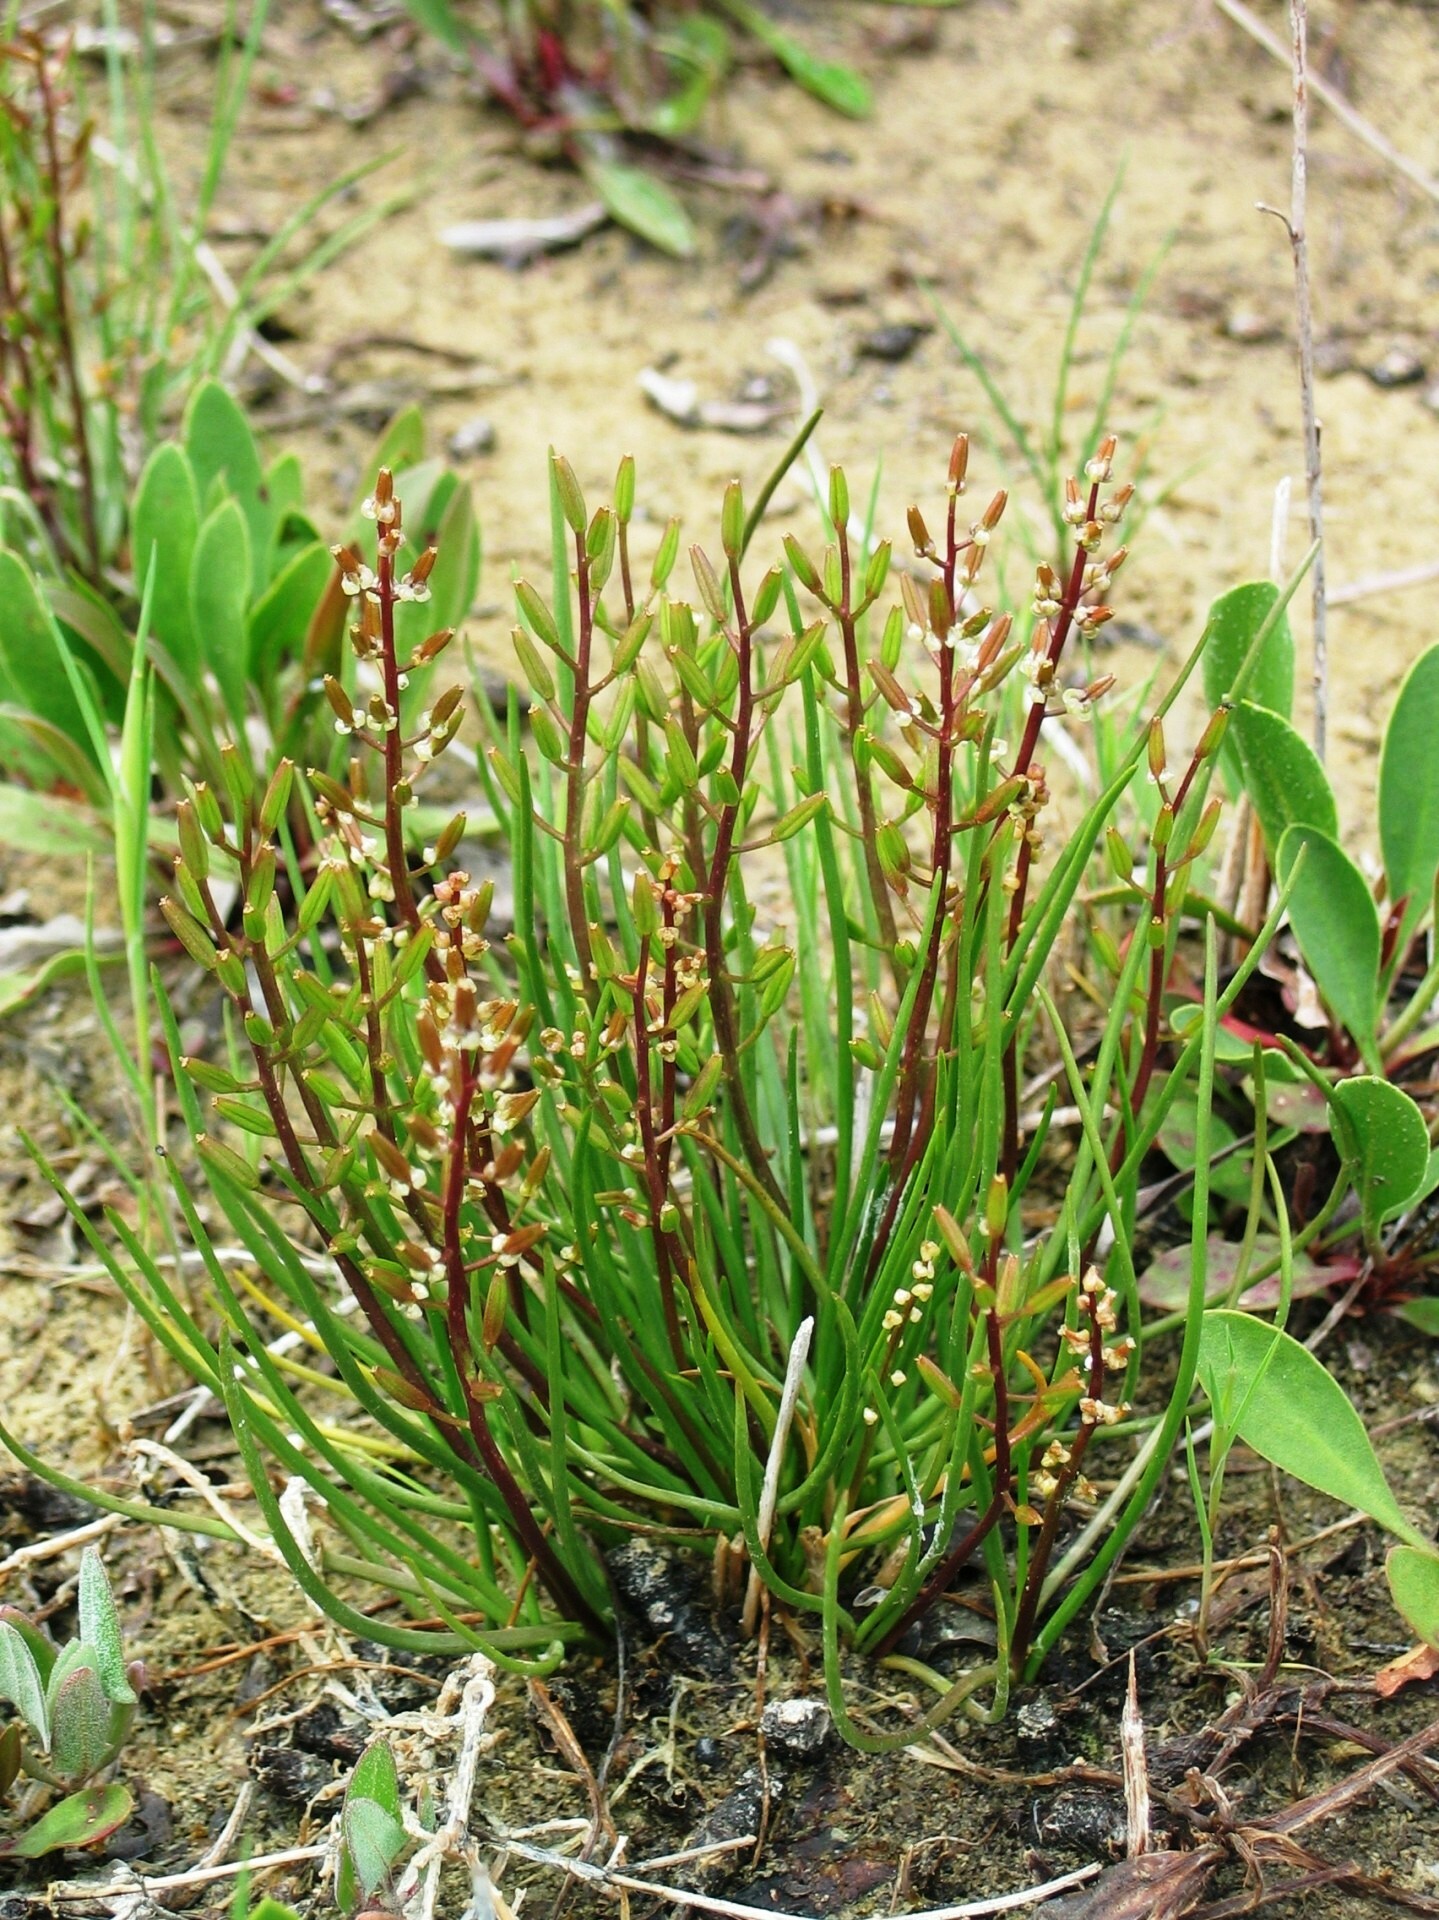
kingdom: Plantae
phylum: Tracheophyta
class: Liliopsida
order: Alismatales
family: Juncaginaceae
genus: Triglochin
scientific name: Triglochin barrelieri
